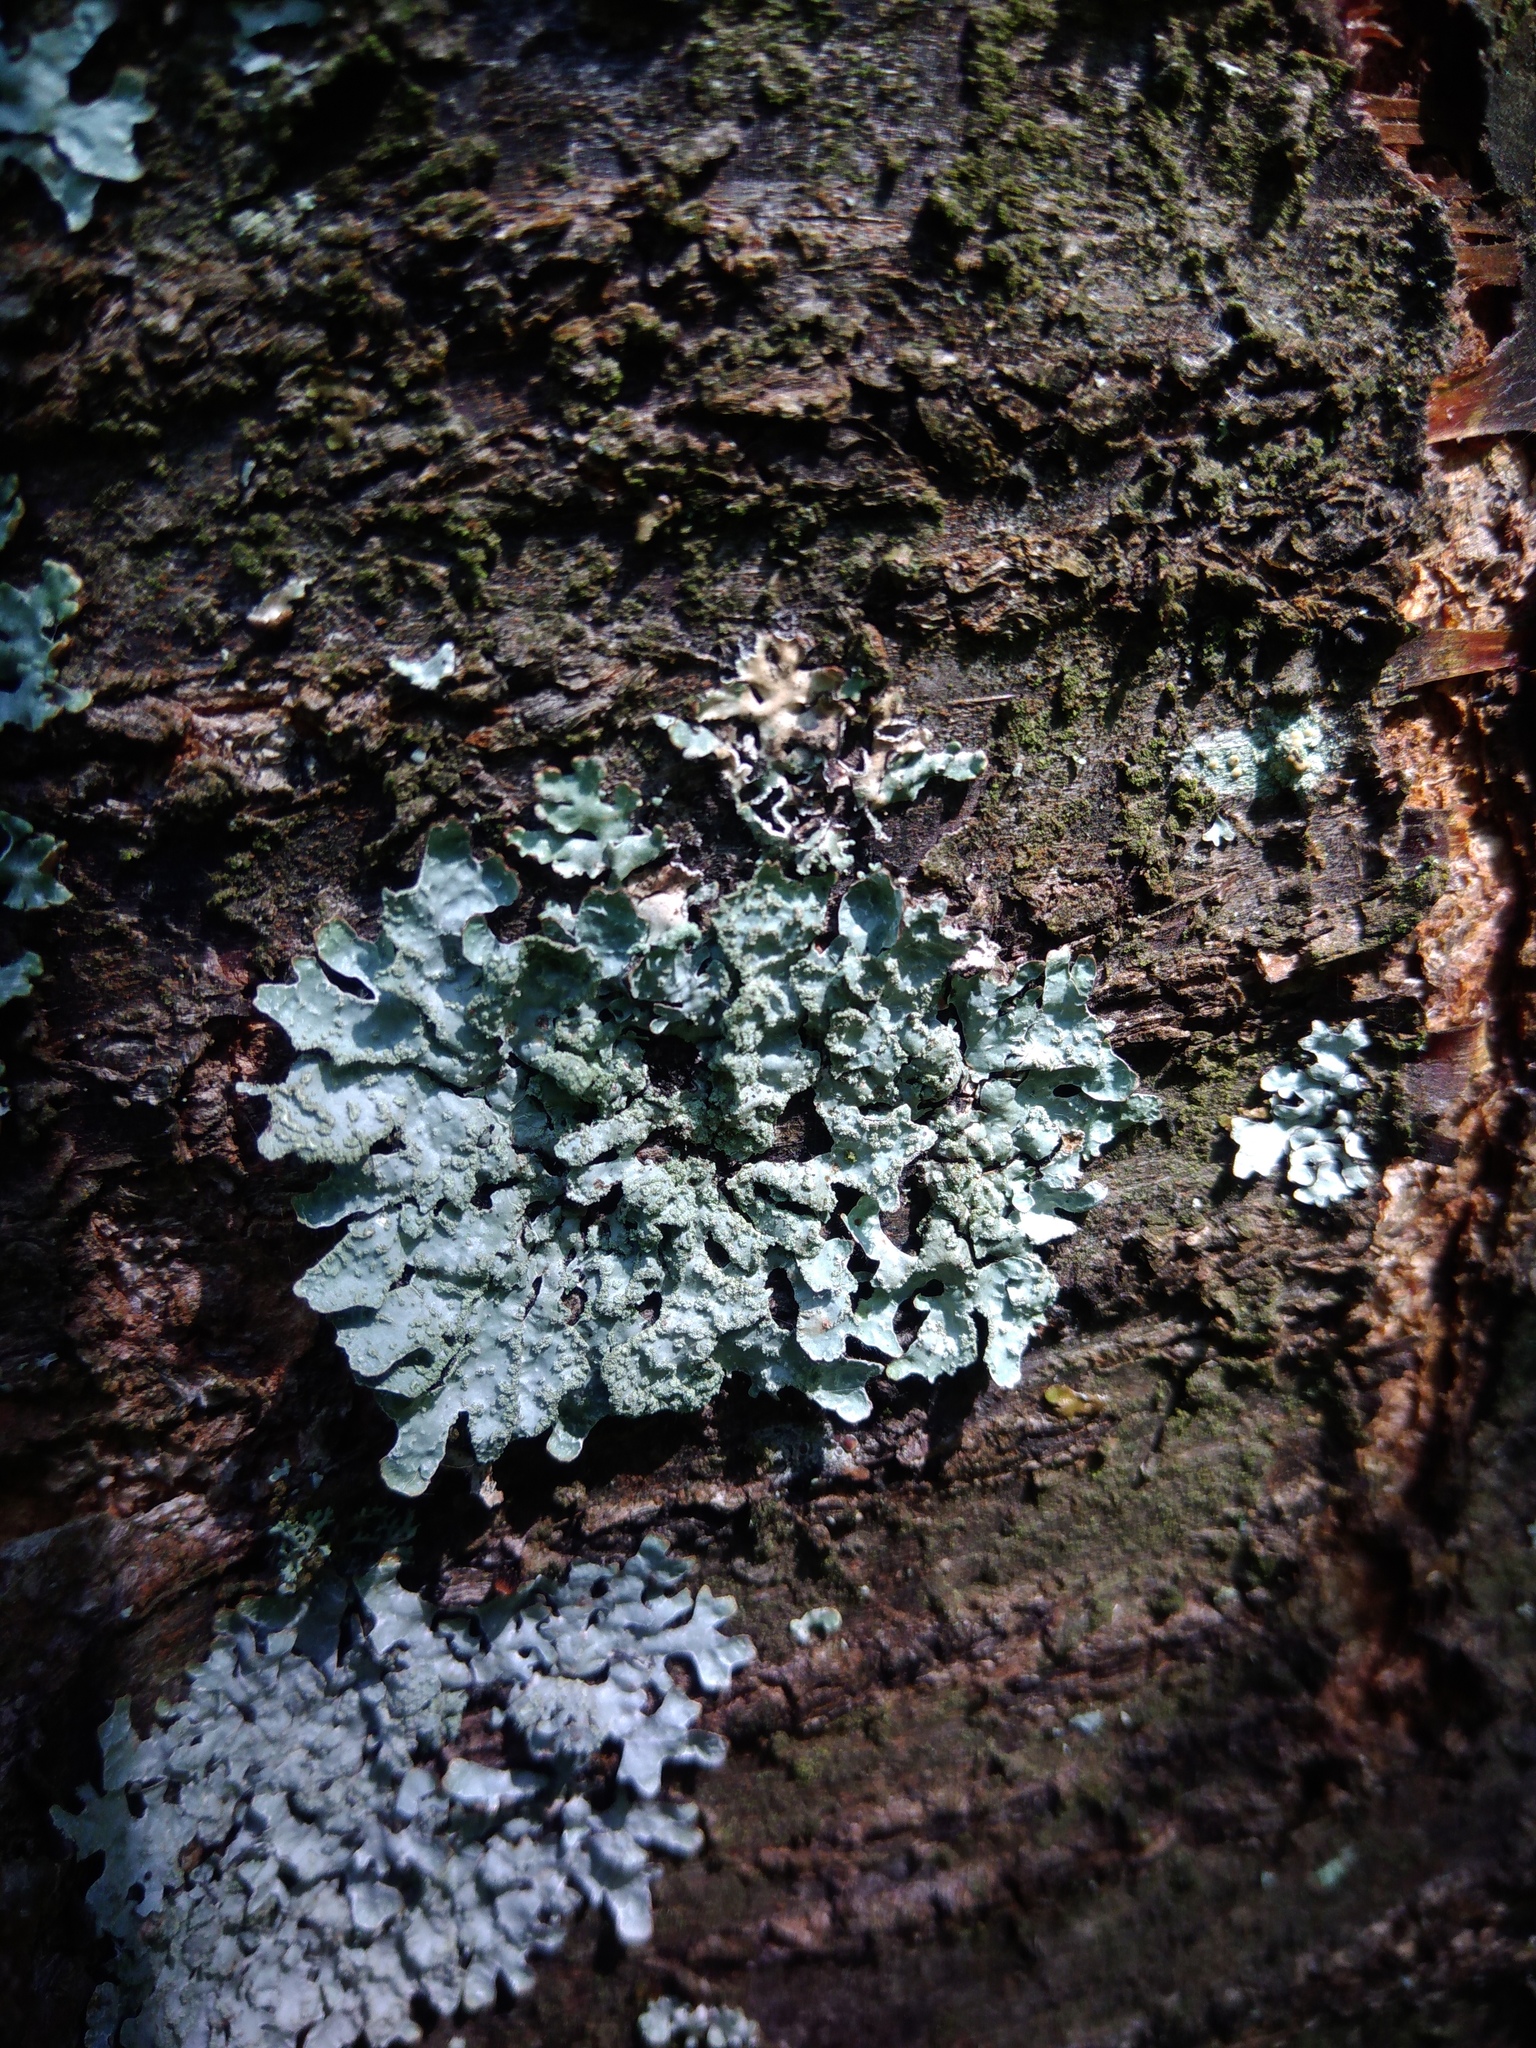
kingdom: Fungi
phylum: Ascomycota
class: Lecanoromycetes
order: Lecanorales
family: Parmeliaceae
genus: Parmelia
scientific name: Parmelia sulcata
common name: Netted shield lichen
